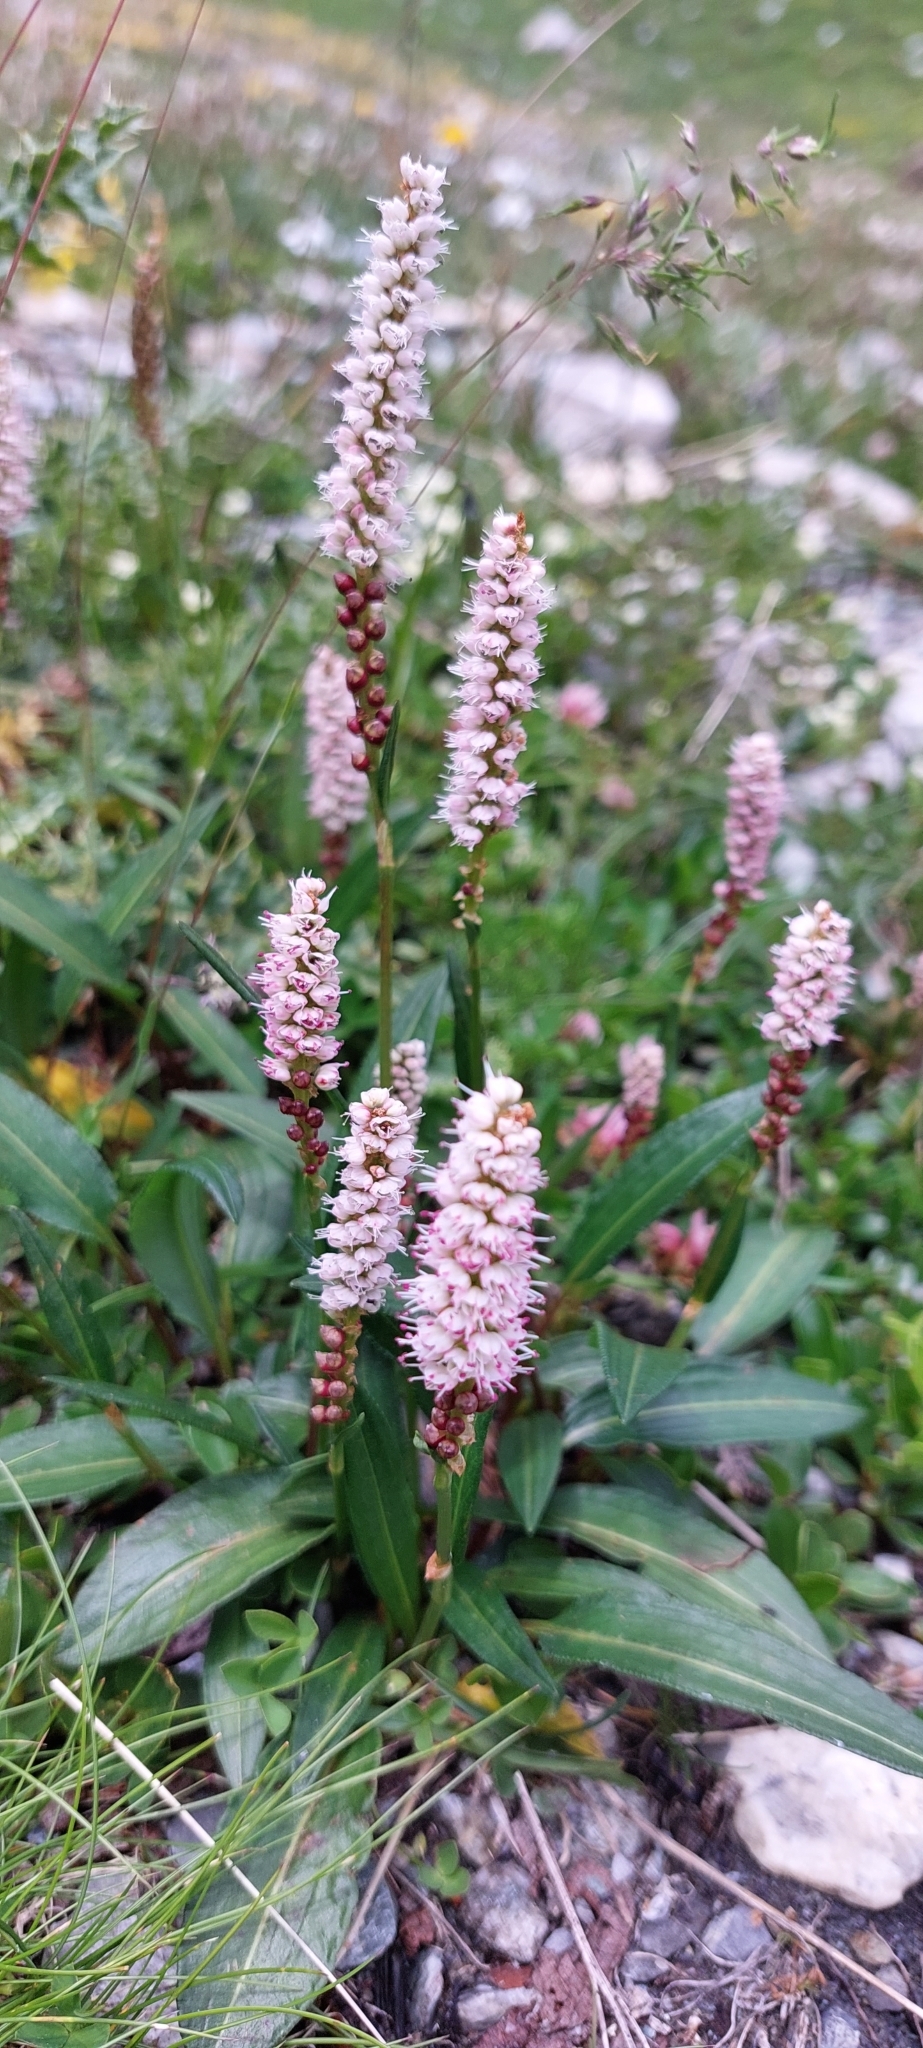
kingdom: Plantae
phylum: Tracheophyta
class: Magnoliopsida
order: Caryophyllales
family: Polygonaceae
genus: Bistorta
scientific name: Bistorta officinalis
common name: Common bistort
